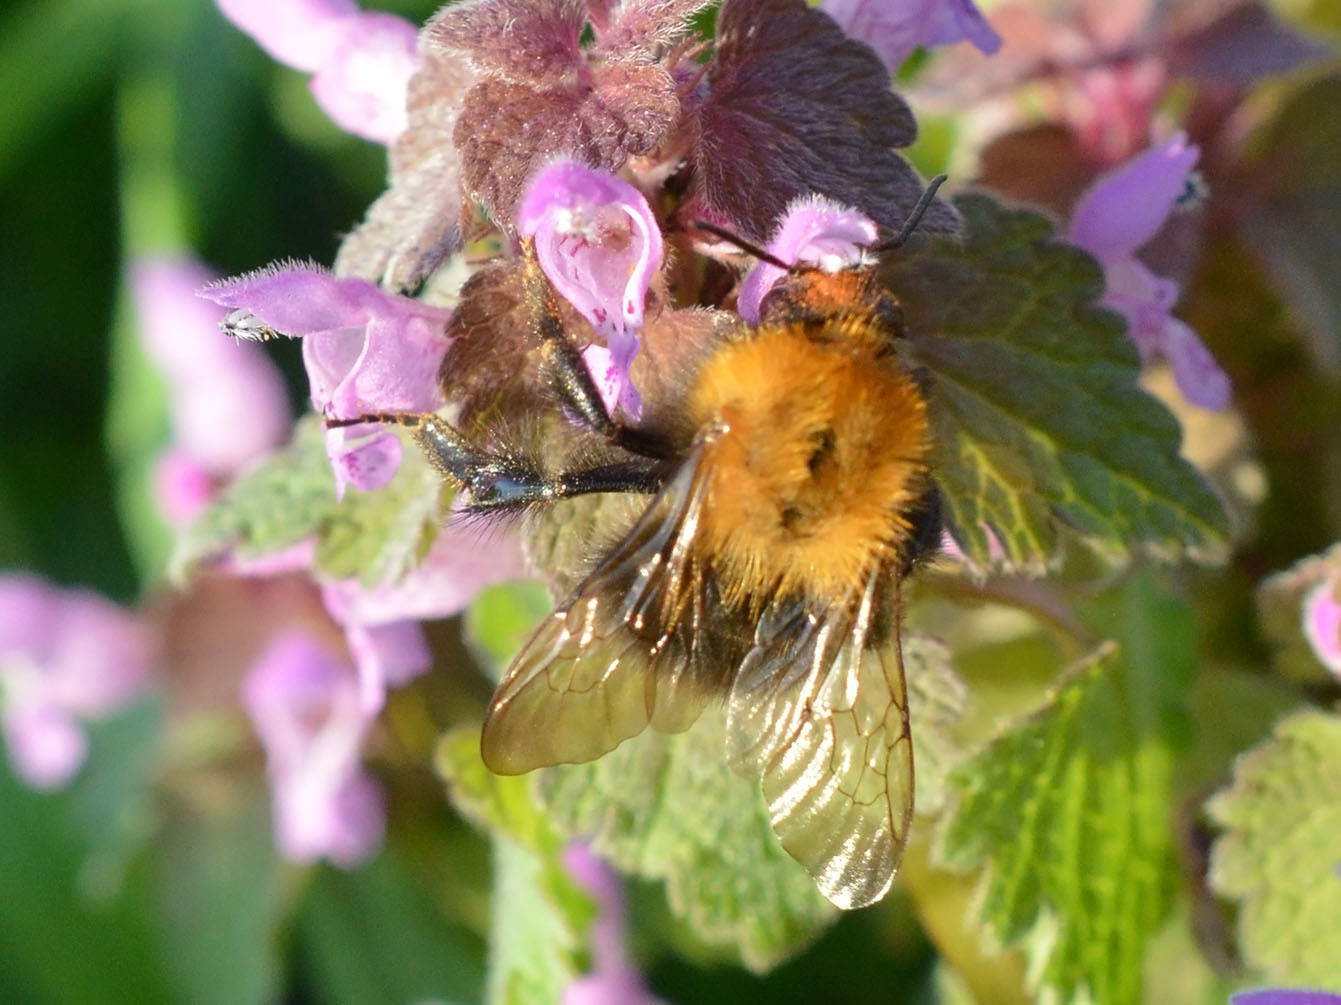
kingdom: Animalia
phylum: Arthropoda
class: Insecta
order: Hymenoptera
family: Apidae
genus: Bombus
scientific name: Bombus pascuorum
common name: Common carder bee
